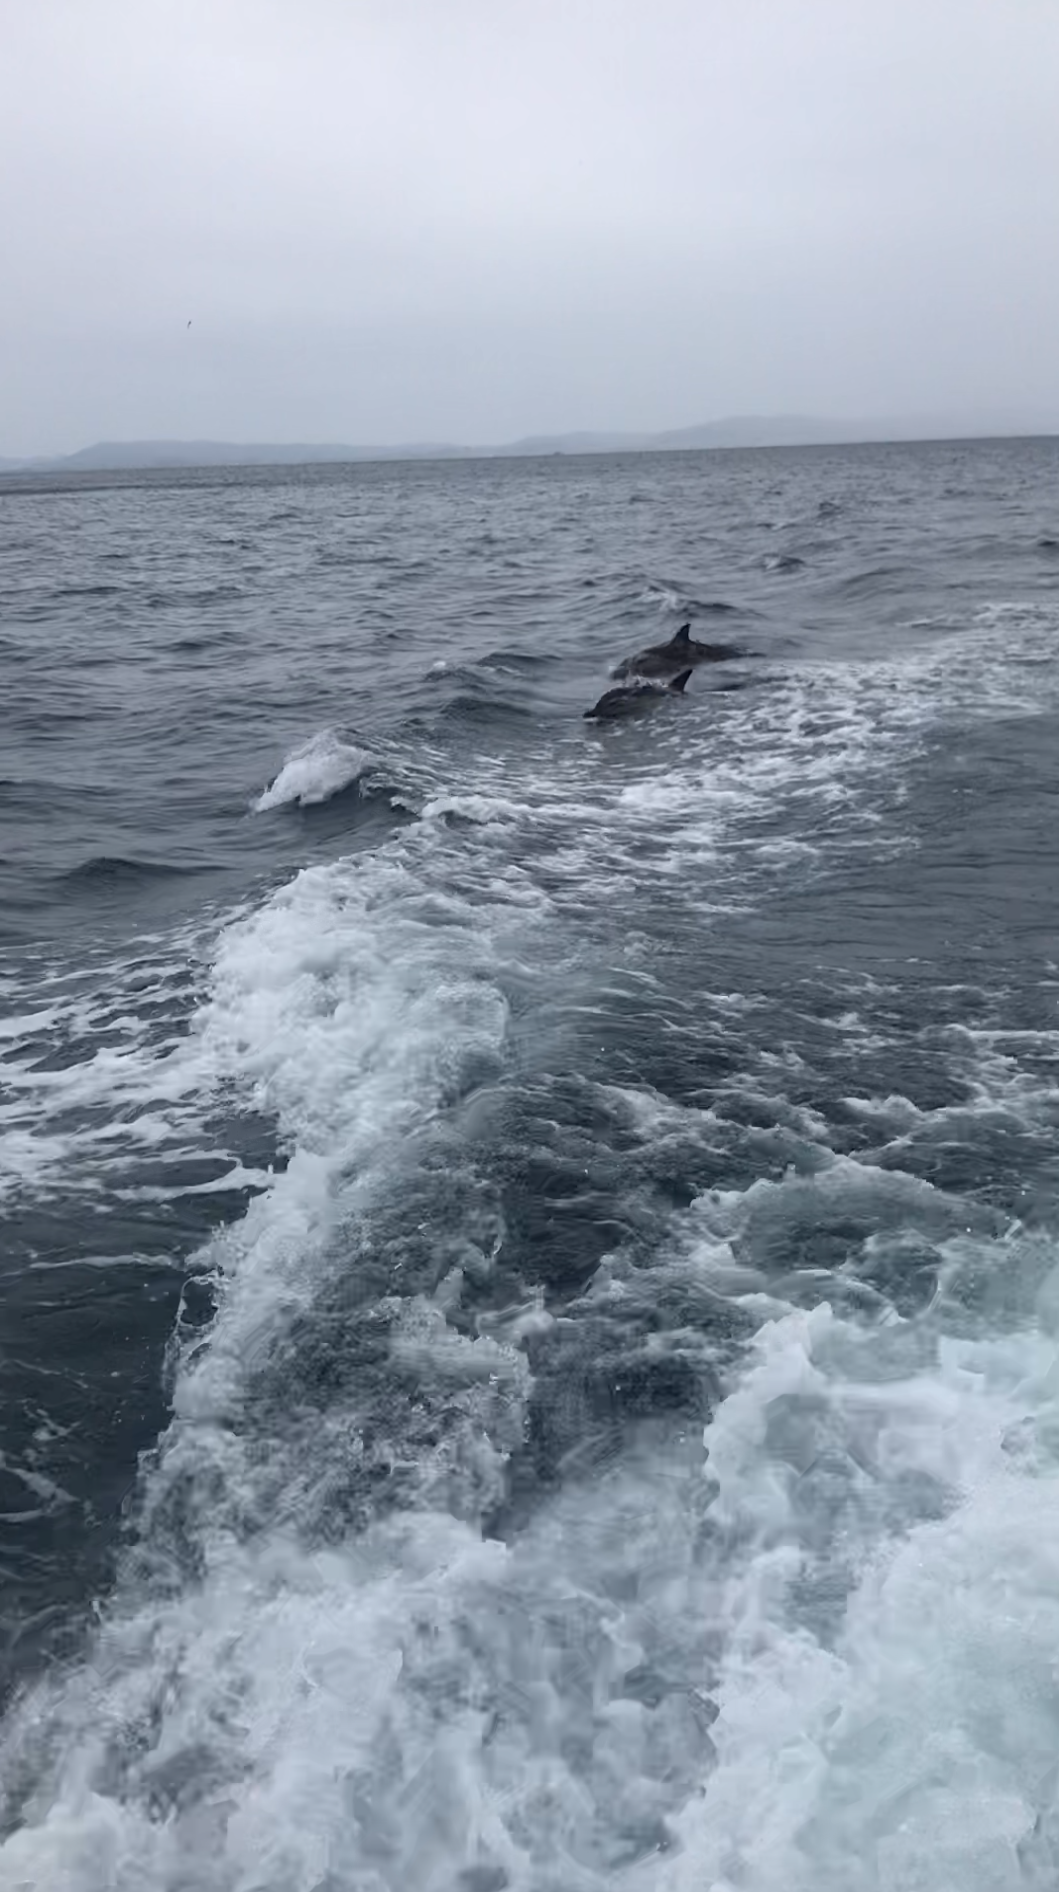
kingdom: Animalia
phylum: Chordata
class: Mammalia
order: Cetacea
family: Delphinidae
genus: Delphinus
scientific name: Delphinus delphis
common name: Common dolphin
